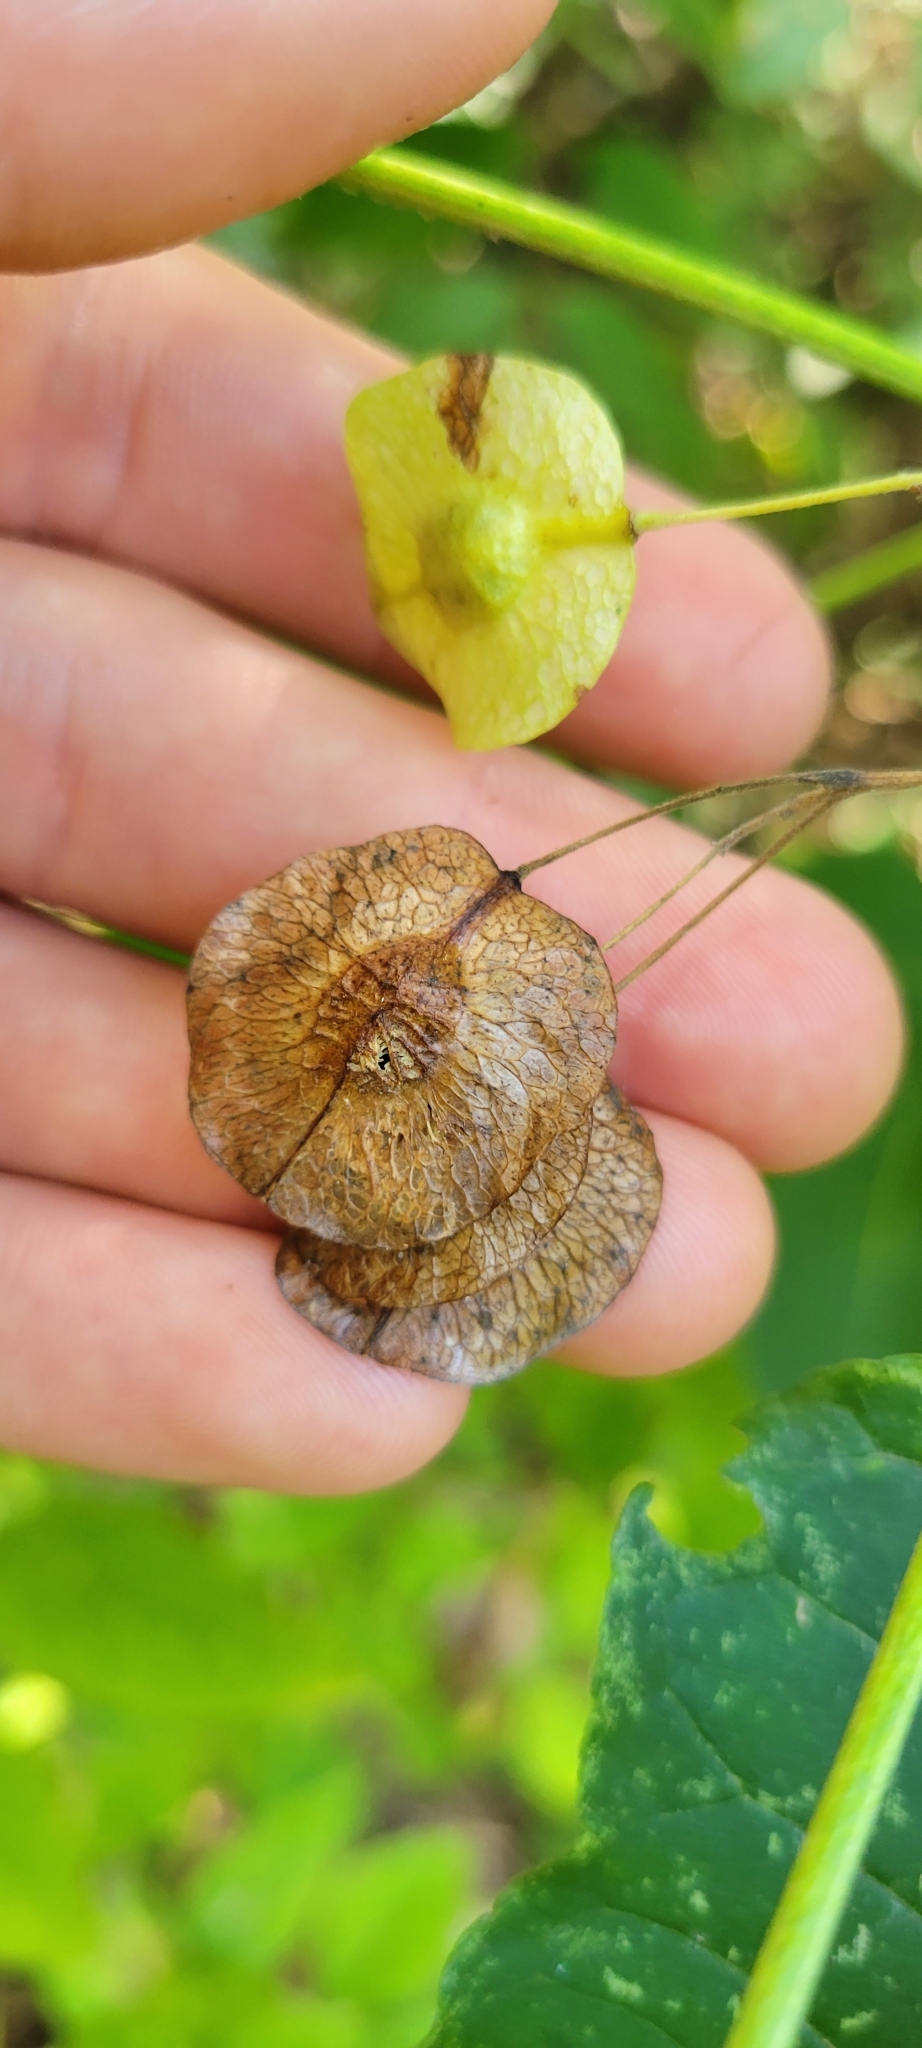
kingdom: Plantae
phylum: Tracheophyta
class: Magnoliopsida
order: Sapindales
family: Rutaceae
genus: Ptelea
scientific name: Ptelea trifoliata
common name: Common hop-tree
